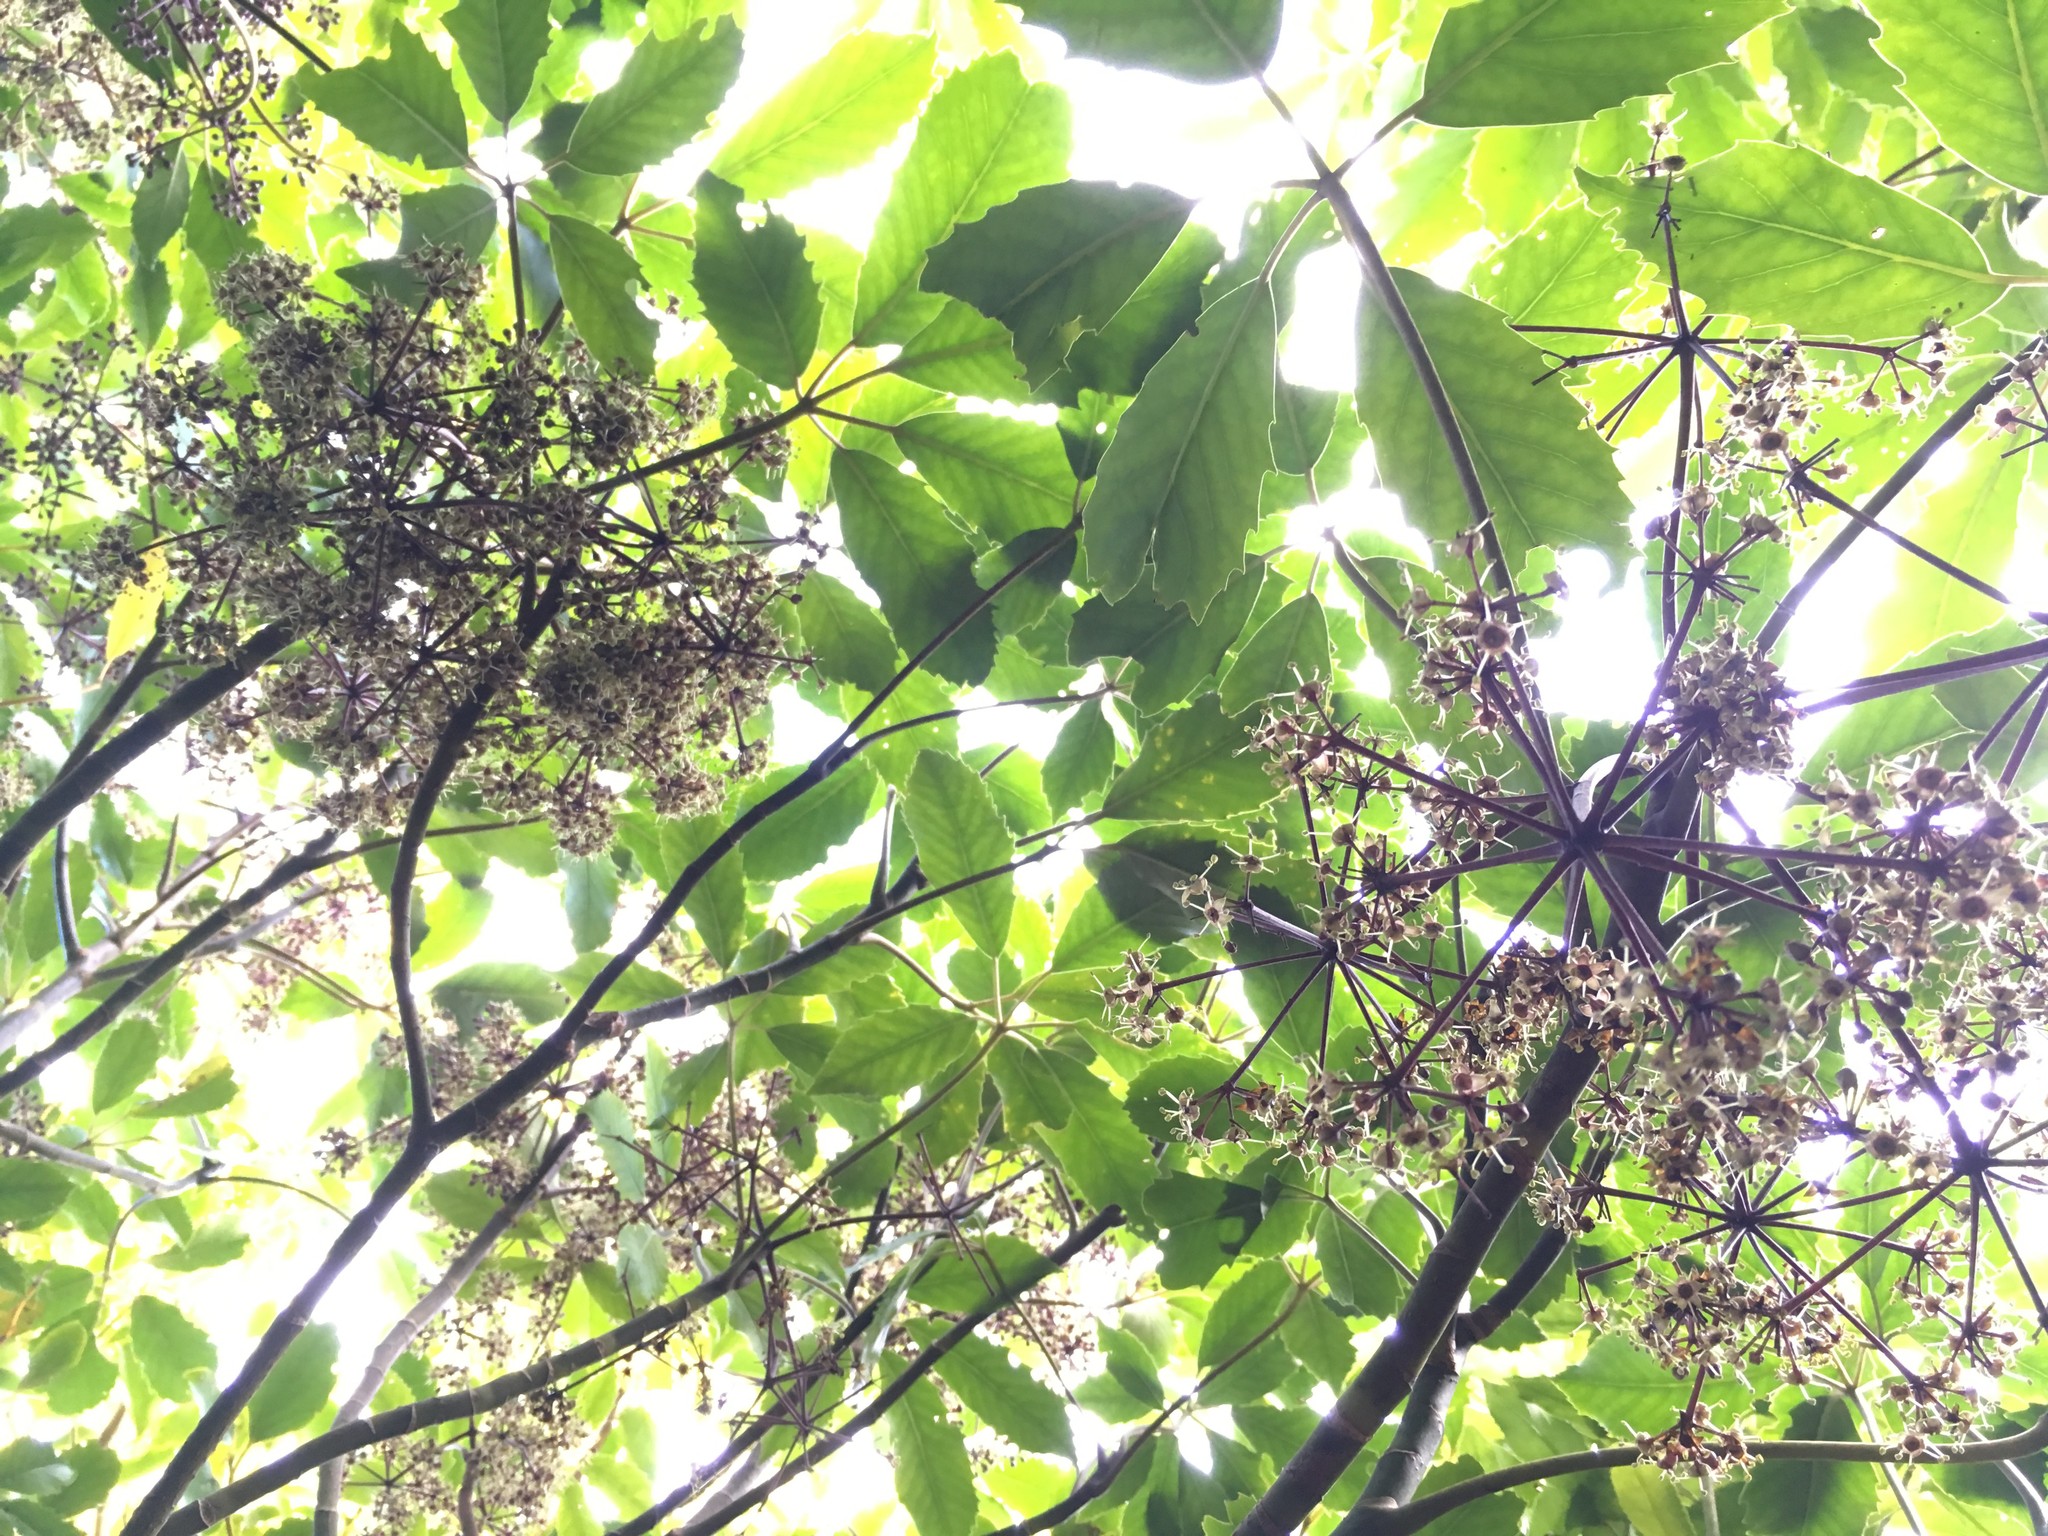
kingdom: Plantae
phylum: Tracheophyta
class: Magnoliopsida
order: Apiales
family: Araliaceae
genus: Neopanax
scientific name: Neopanax arboreus
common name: Five-fingers
